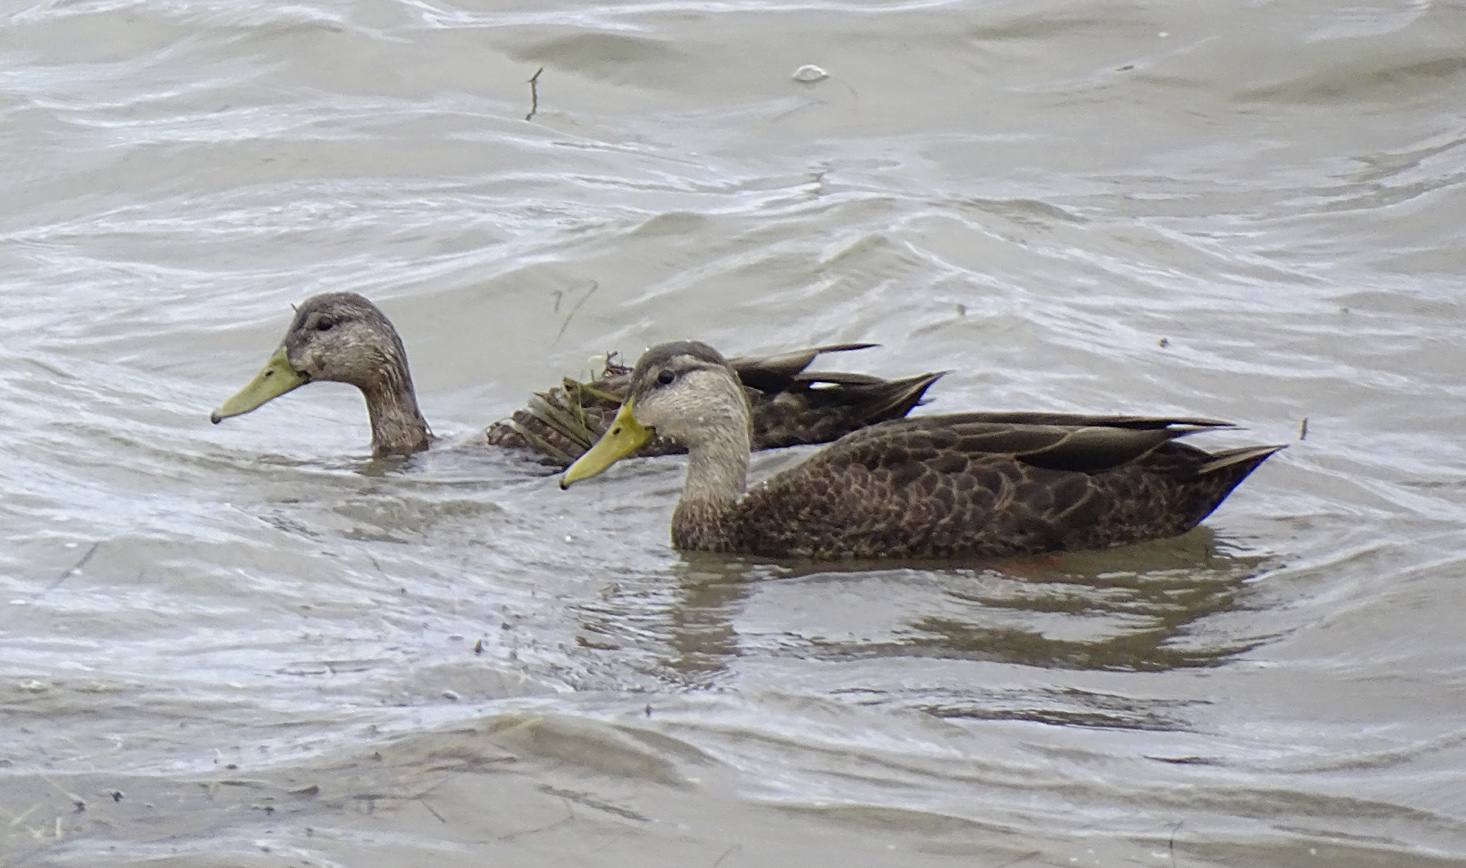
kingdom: Animalia
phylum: Chordata
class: Aves
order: Anseriformes
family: Anatidae
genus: Anas
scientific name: Anas rubripes
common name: American black duck
